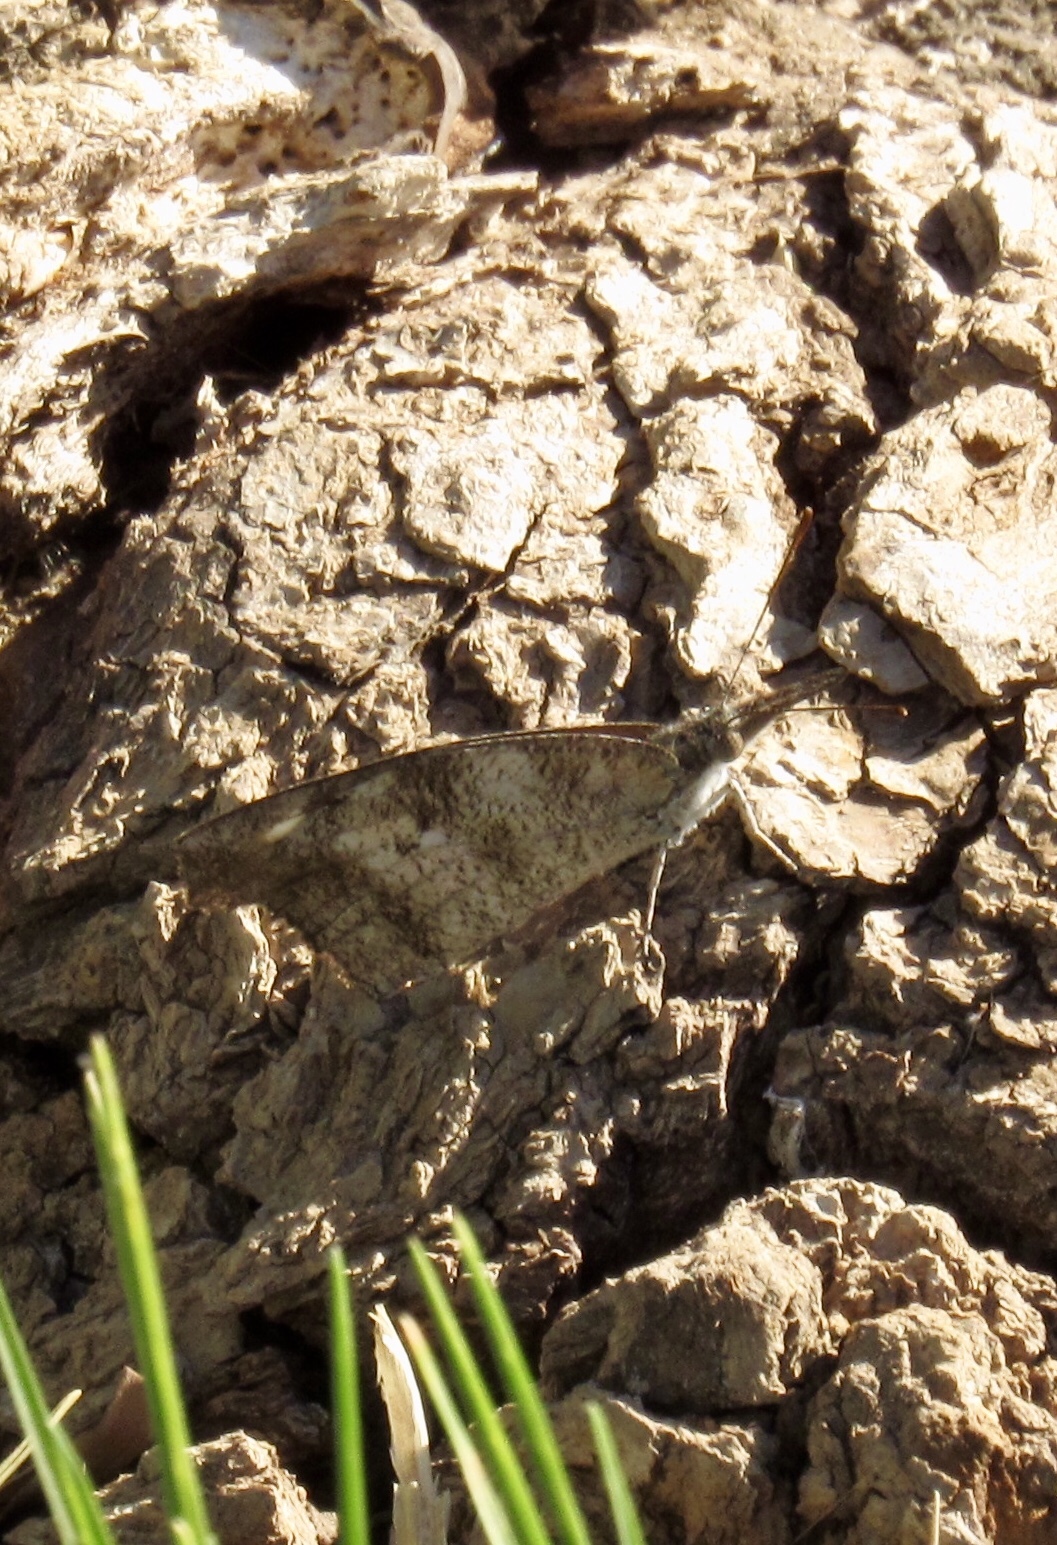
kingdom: Animalia
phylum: Arthropoda
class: Insecta
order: Lepidoptera
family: Nymphalidae
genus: Libytheana
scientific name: Libytheana carinenta
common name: American snout
